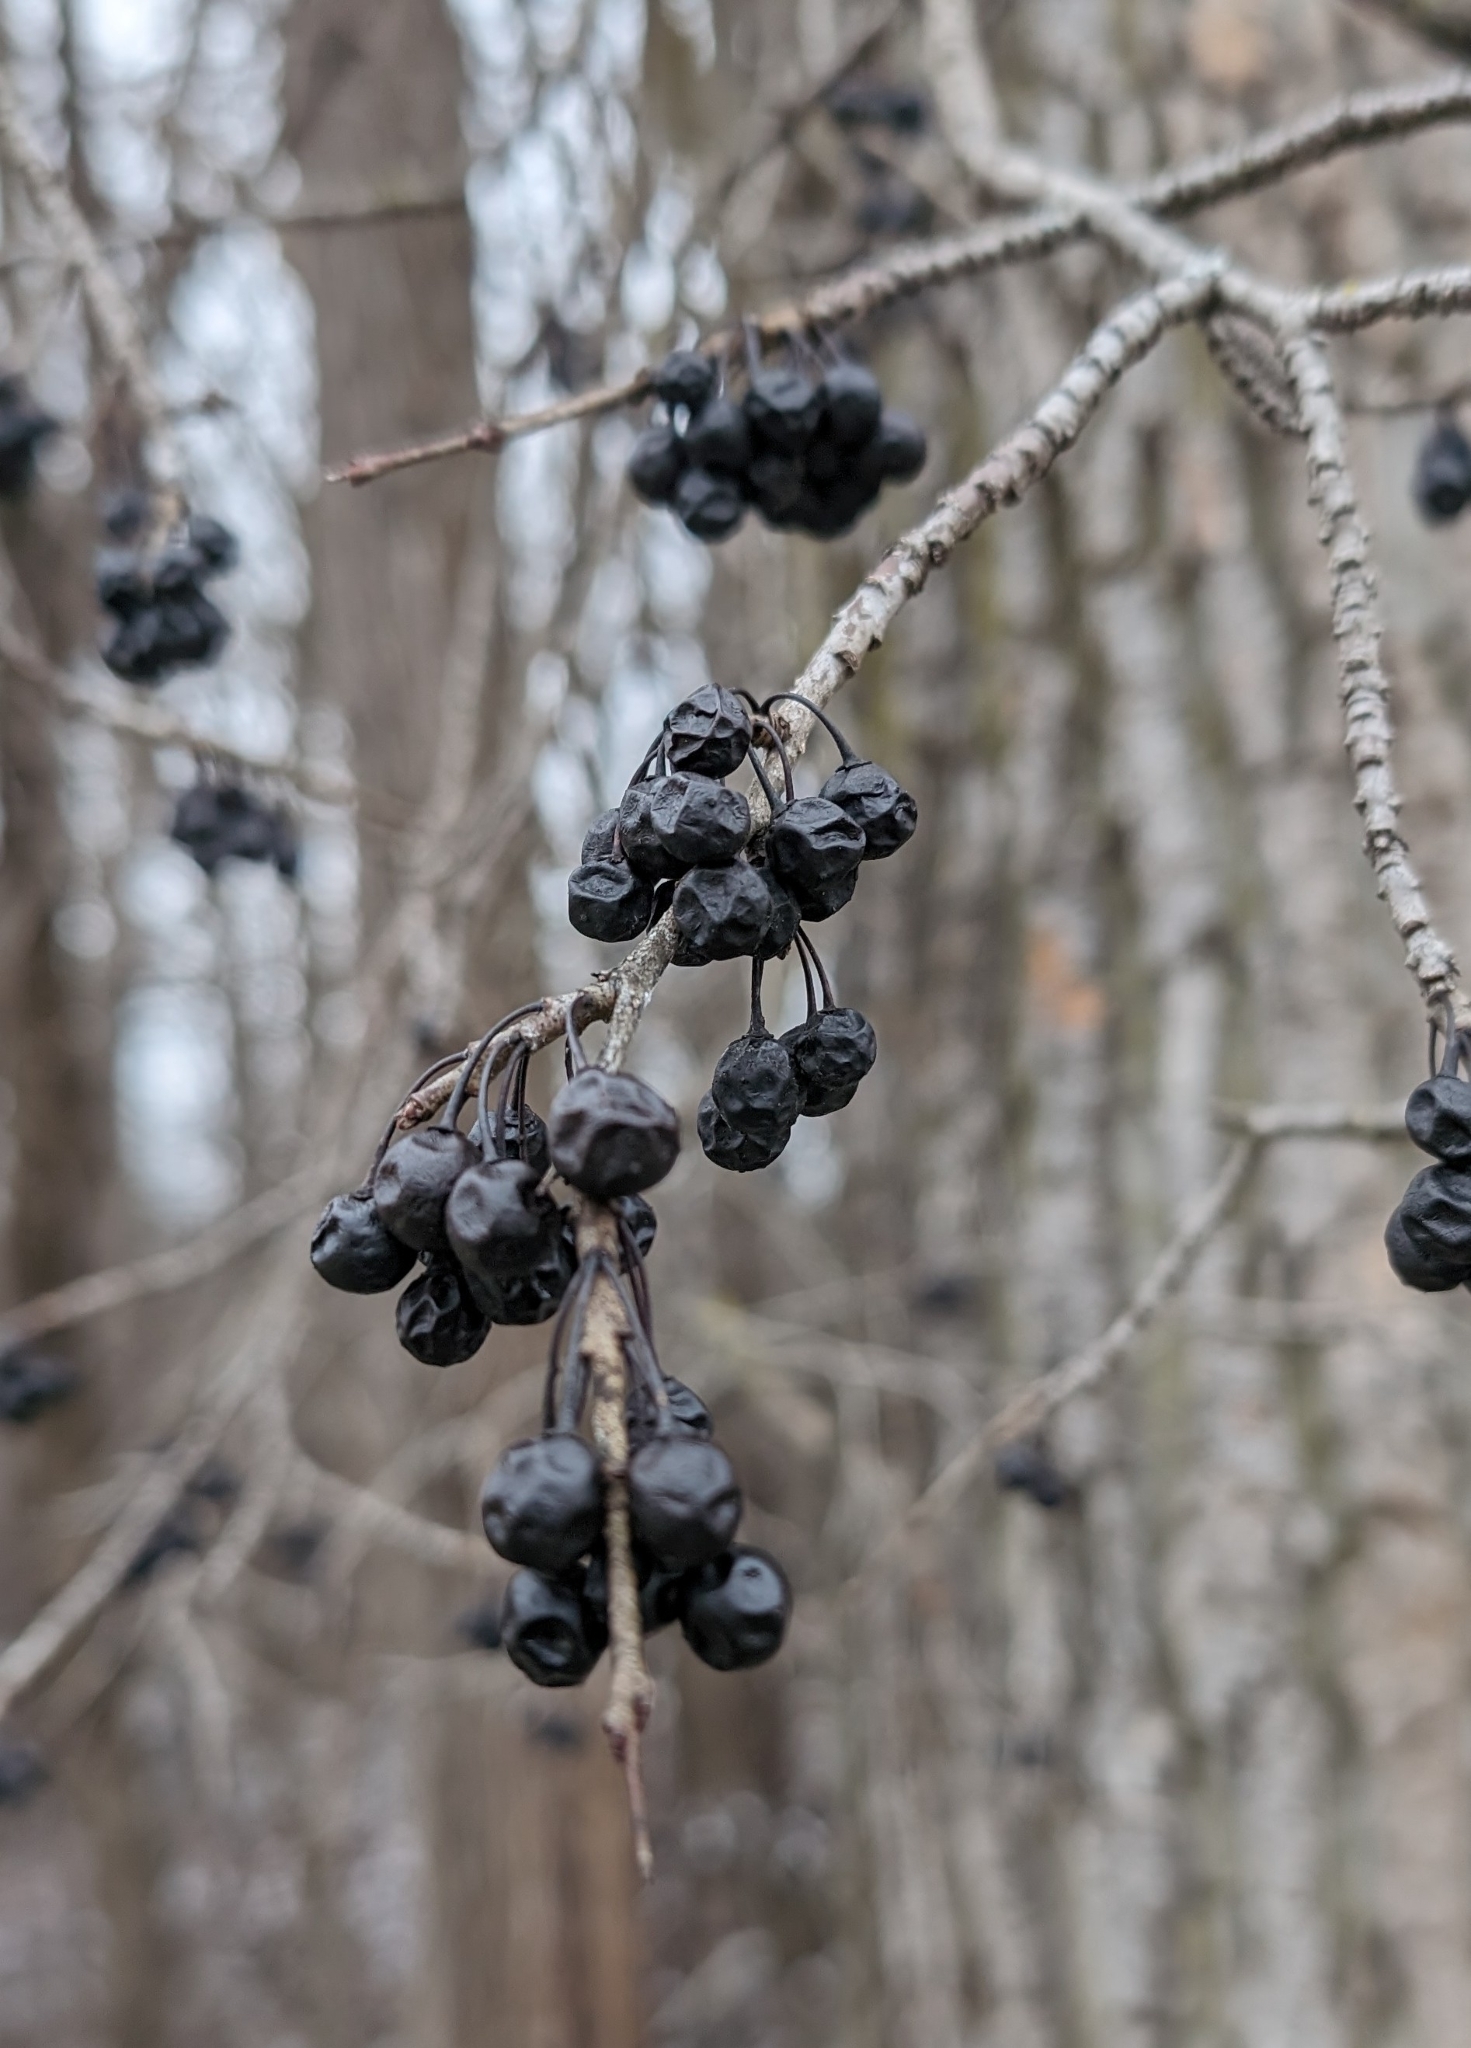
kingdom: Plantae
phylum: Tracheophyta
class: Magnoliopsida
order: Rosales
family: Rhamnaceae
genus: Rhamnus
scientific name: Rhamnus cathartica
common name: Common buckthorn
